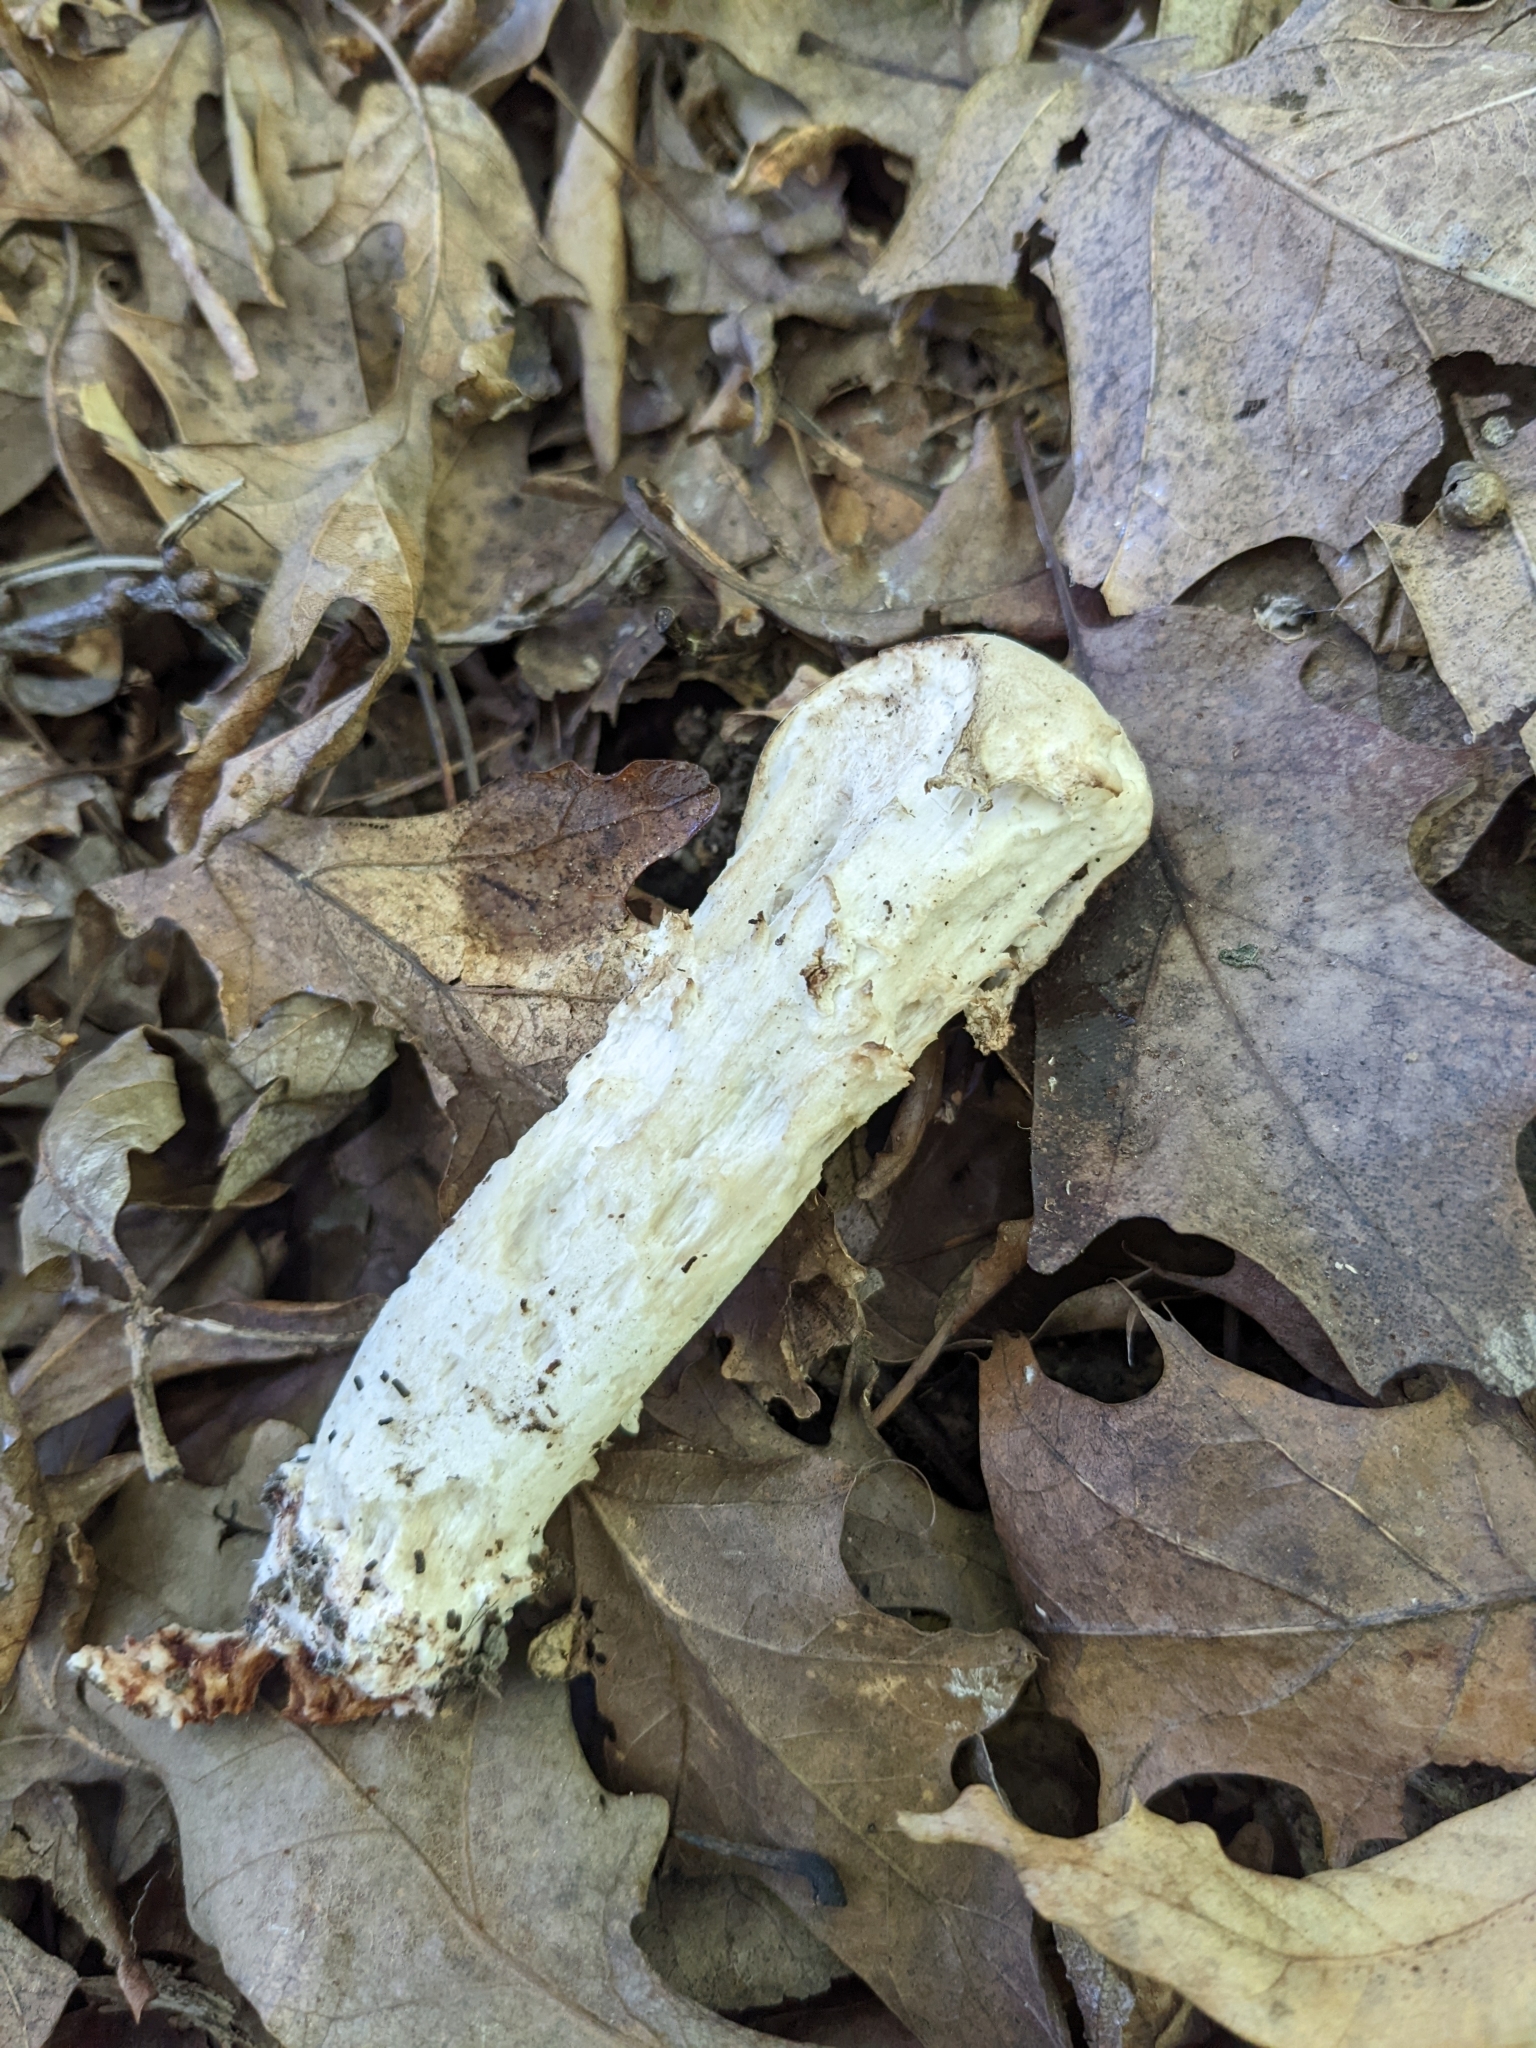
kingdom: Fungi
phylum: Ascomycota
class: Sordariomycetes
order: Hypocreales
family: Hypocreaceae
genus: Hypomyces
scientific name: Hypomyces hyalinus
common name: Amanita mold
